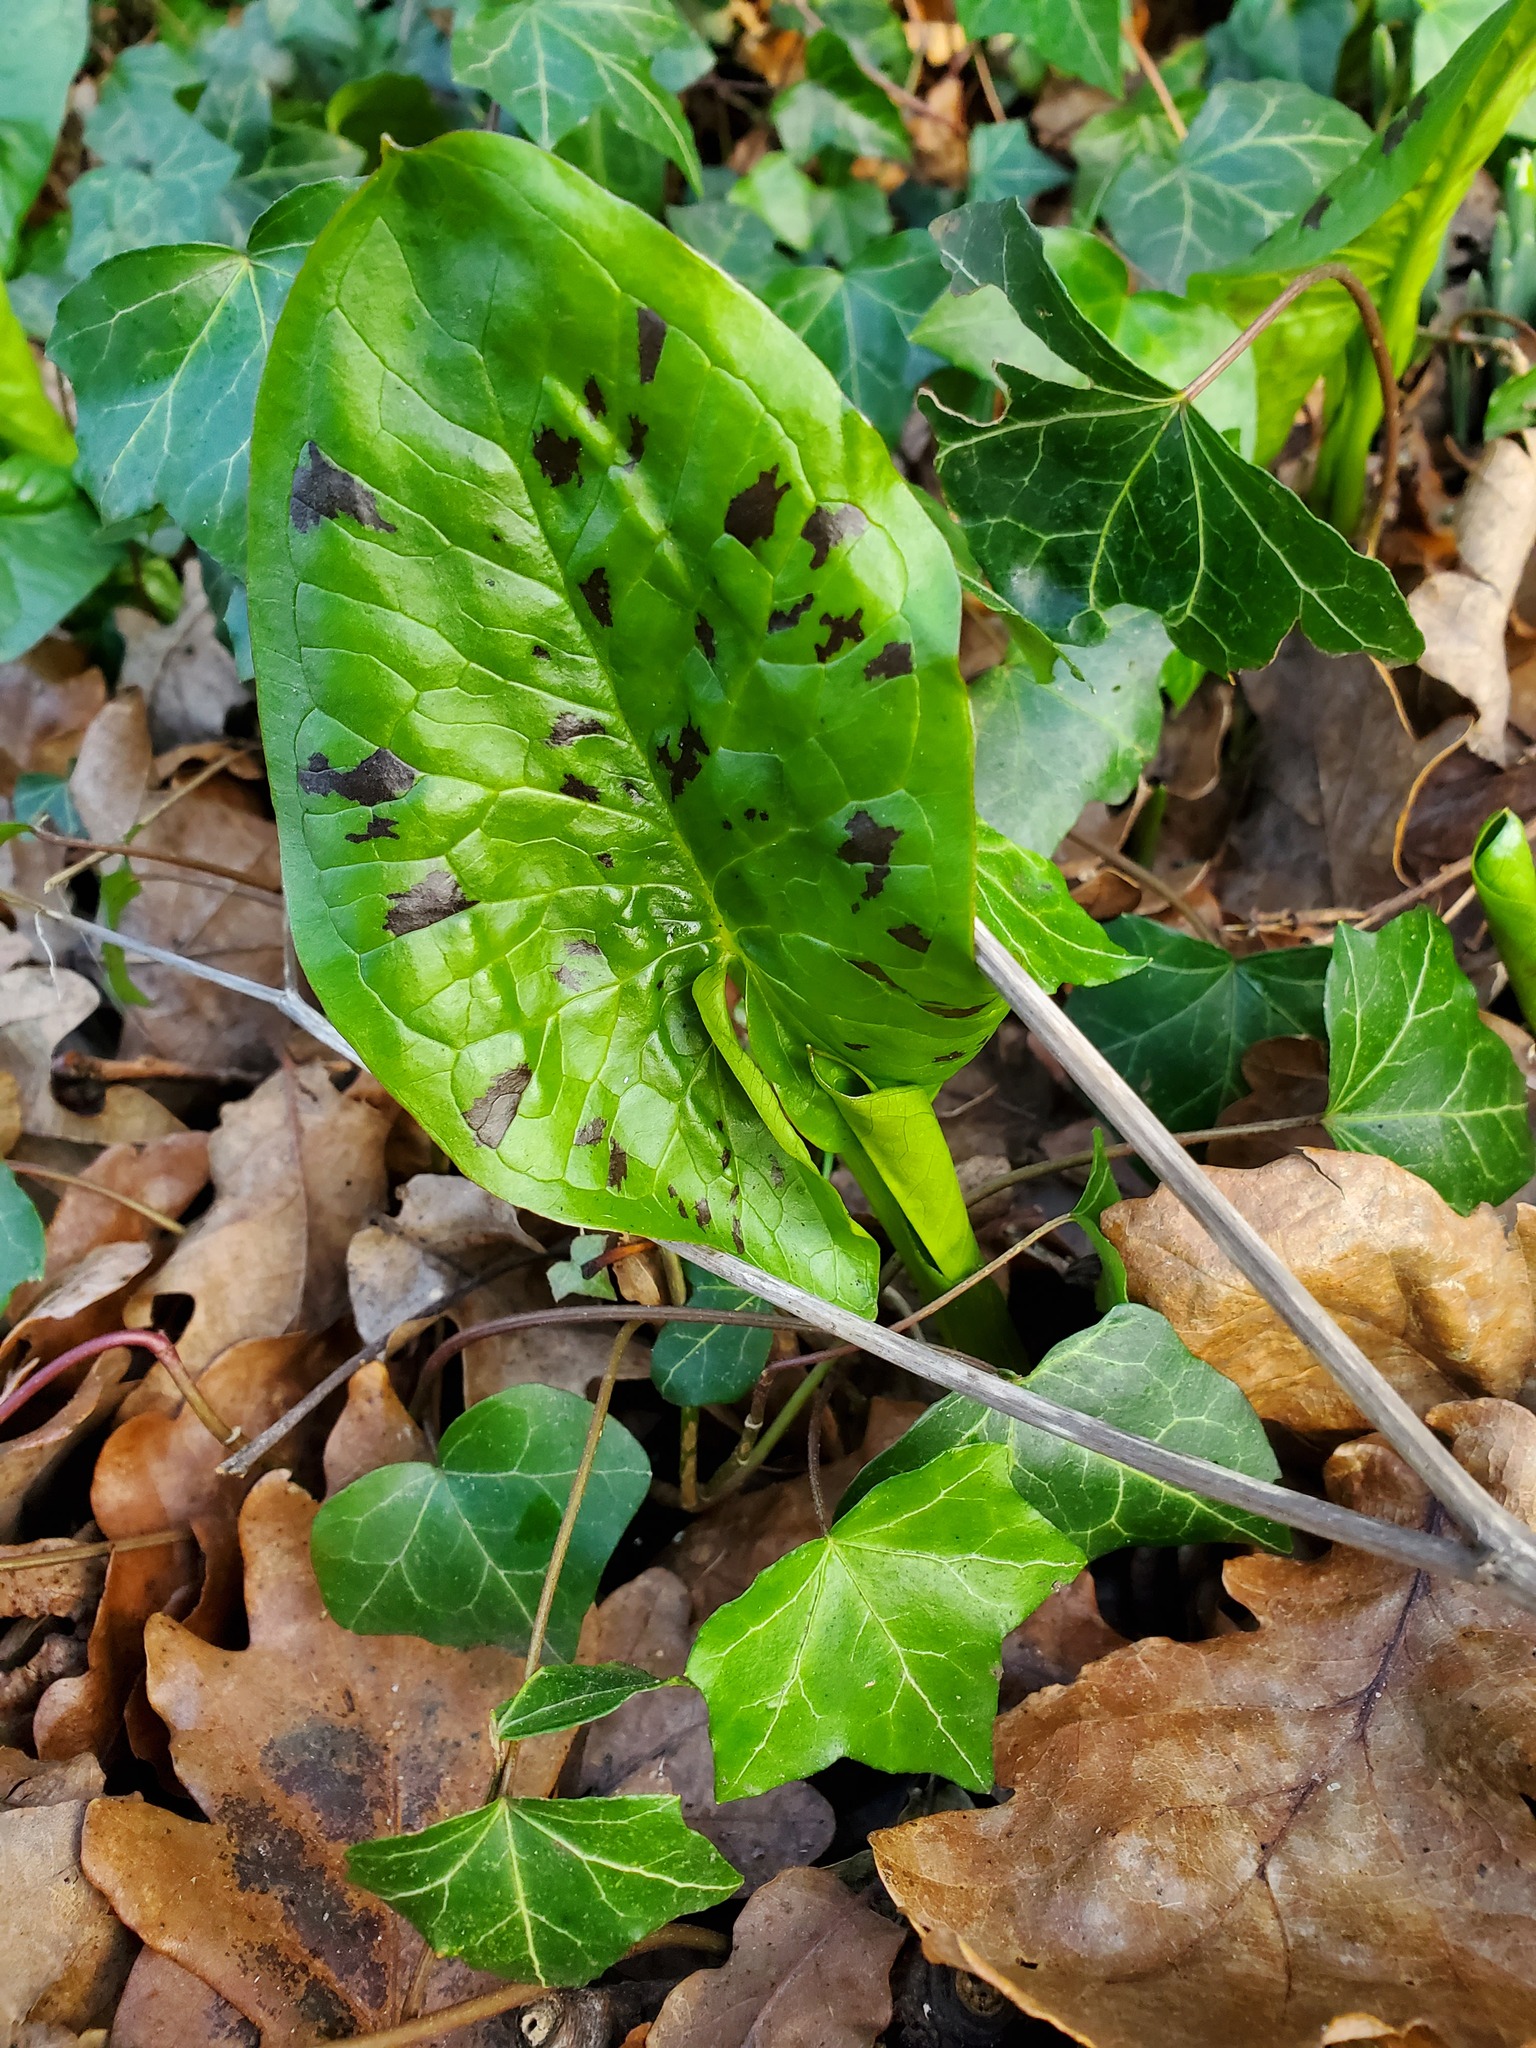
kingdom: Plantae
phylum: Tracheophyta
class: Liliopsida
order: Alismatales
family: Araceae
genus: Arum
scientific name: Arum maculatum
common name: Lords-and-ladies
